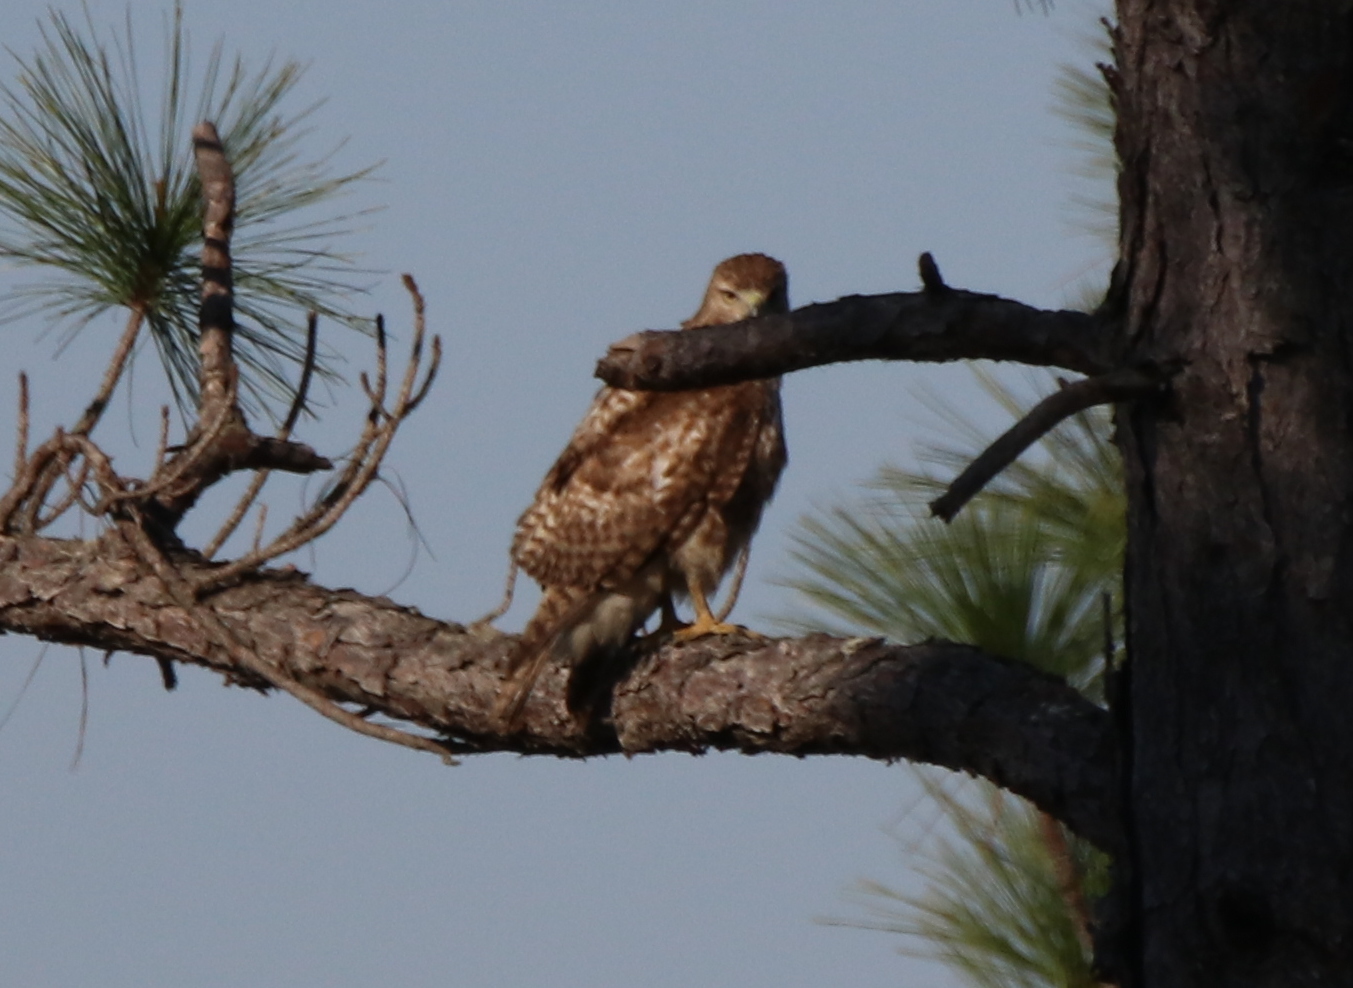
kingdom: Animalia
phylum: Chordata
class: Aves
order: Accipitriformes
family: Accipitridae
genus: Buteo
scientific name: Buteo jamaicensis
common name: Red-tailed hawk
